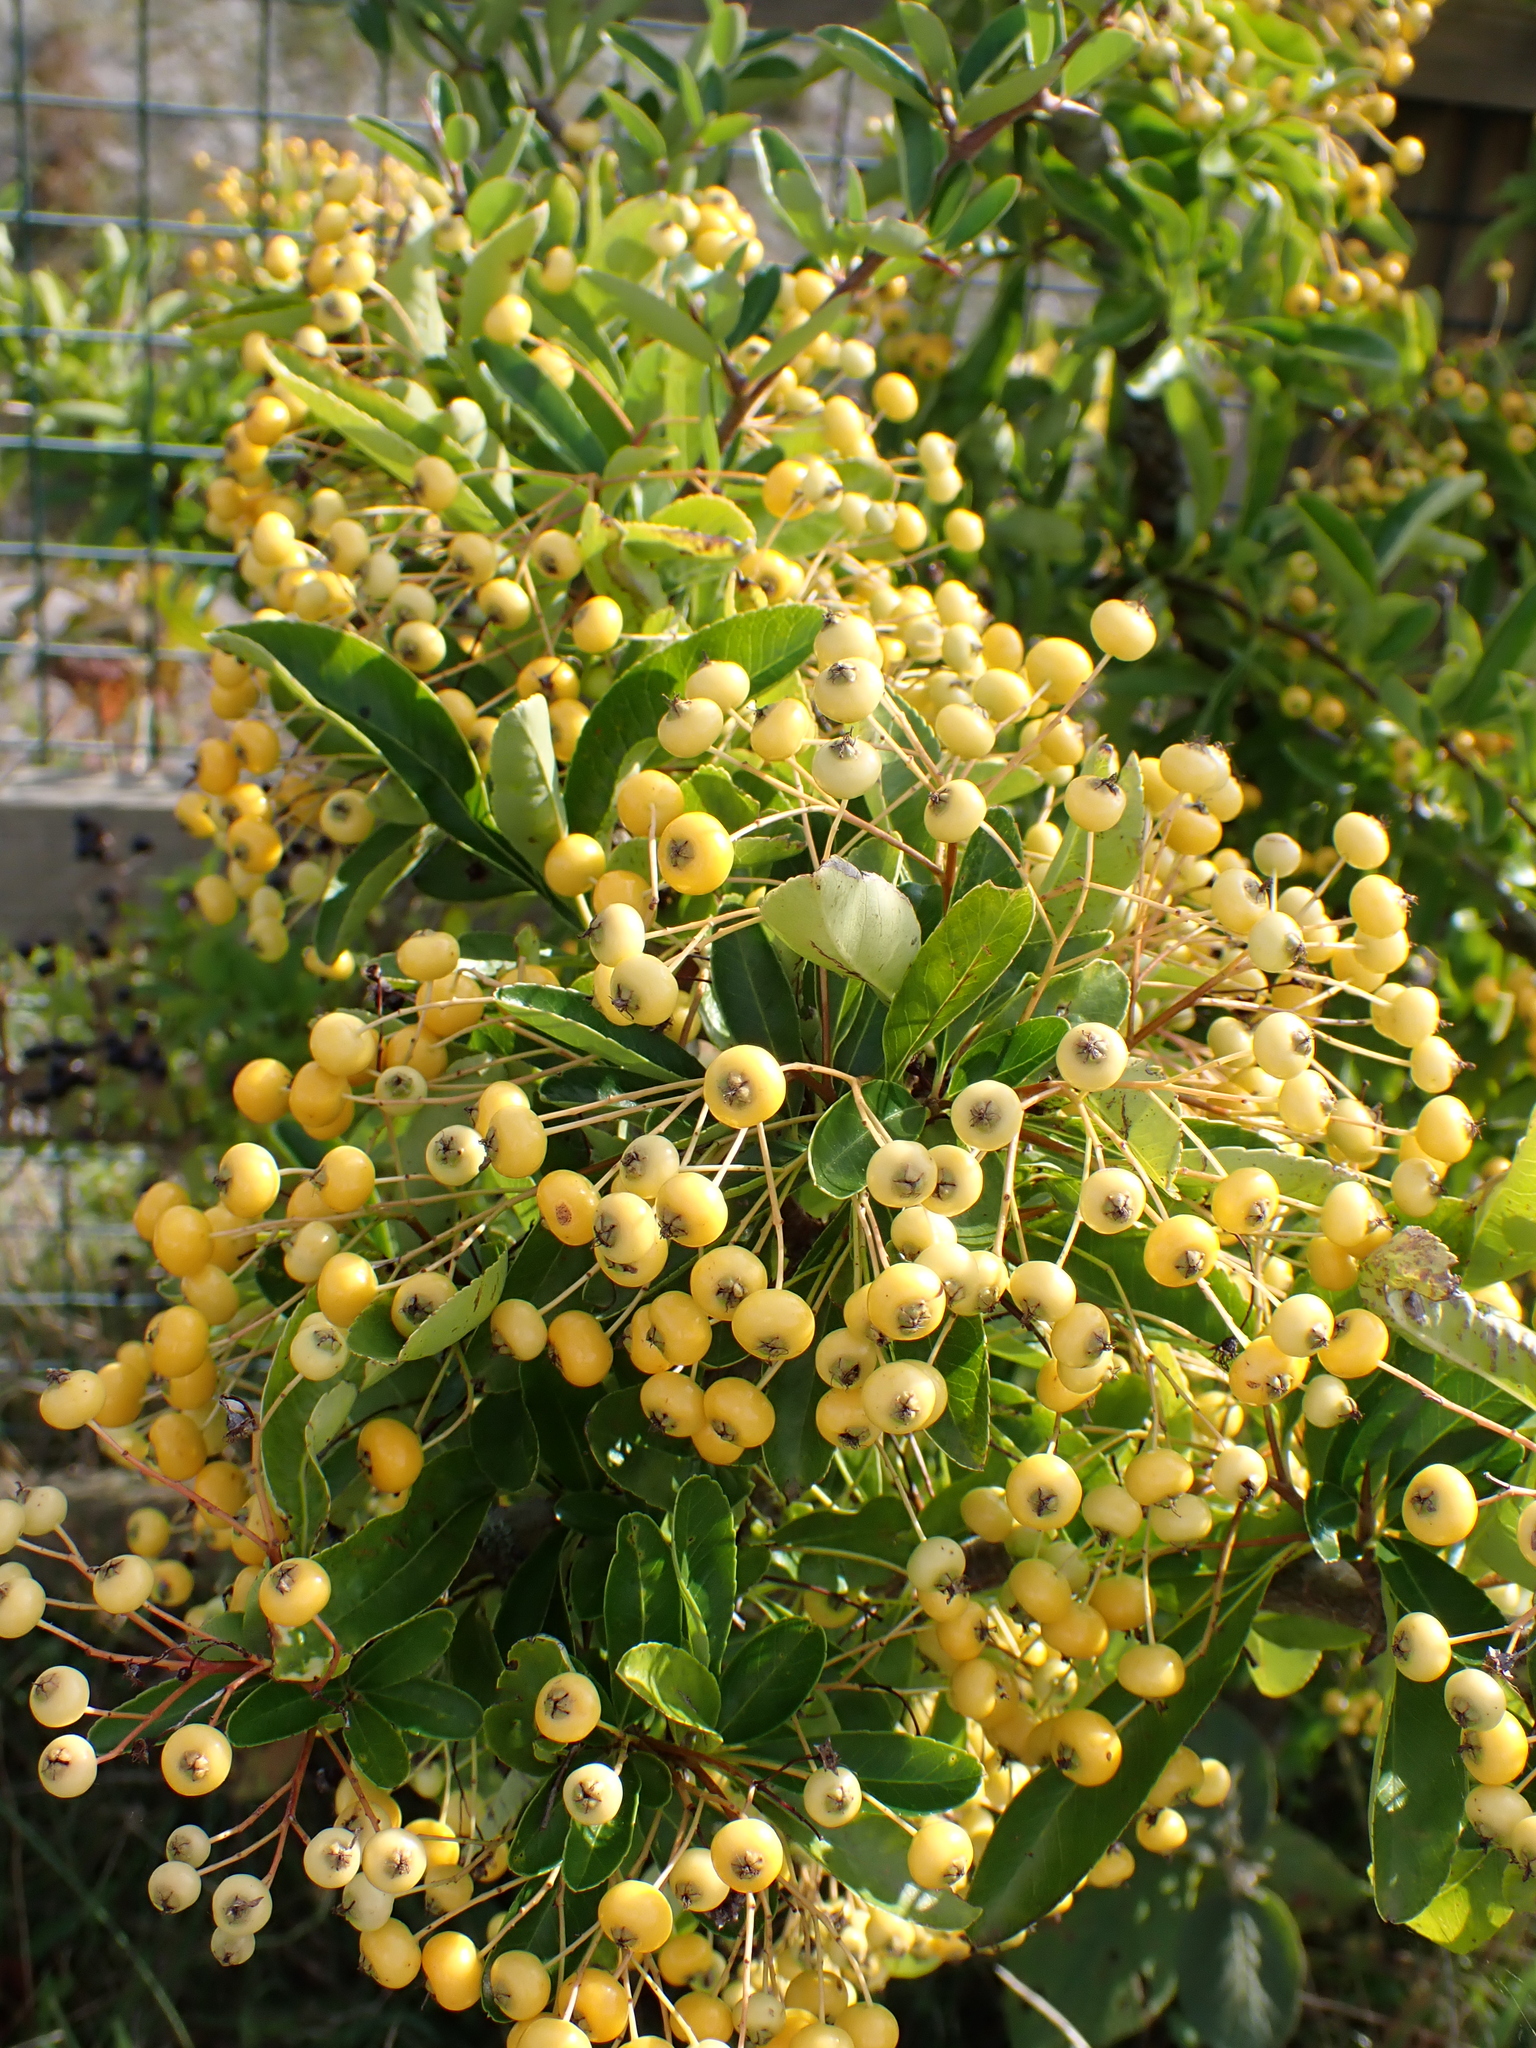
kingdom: Plantae
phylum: Tracheophyta
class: Magnoliopsida
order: Rosales
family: Rosaceae
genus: Pyracantha
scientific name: Pyracantha coccinea
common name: Firethorn
